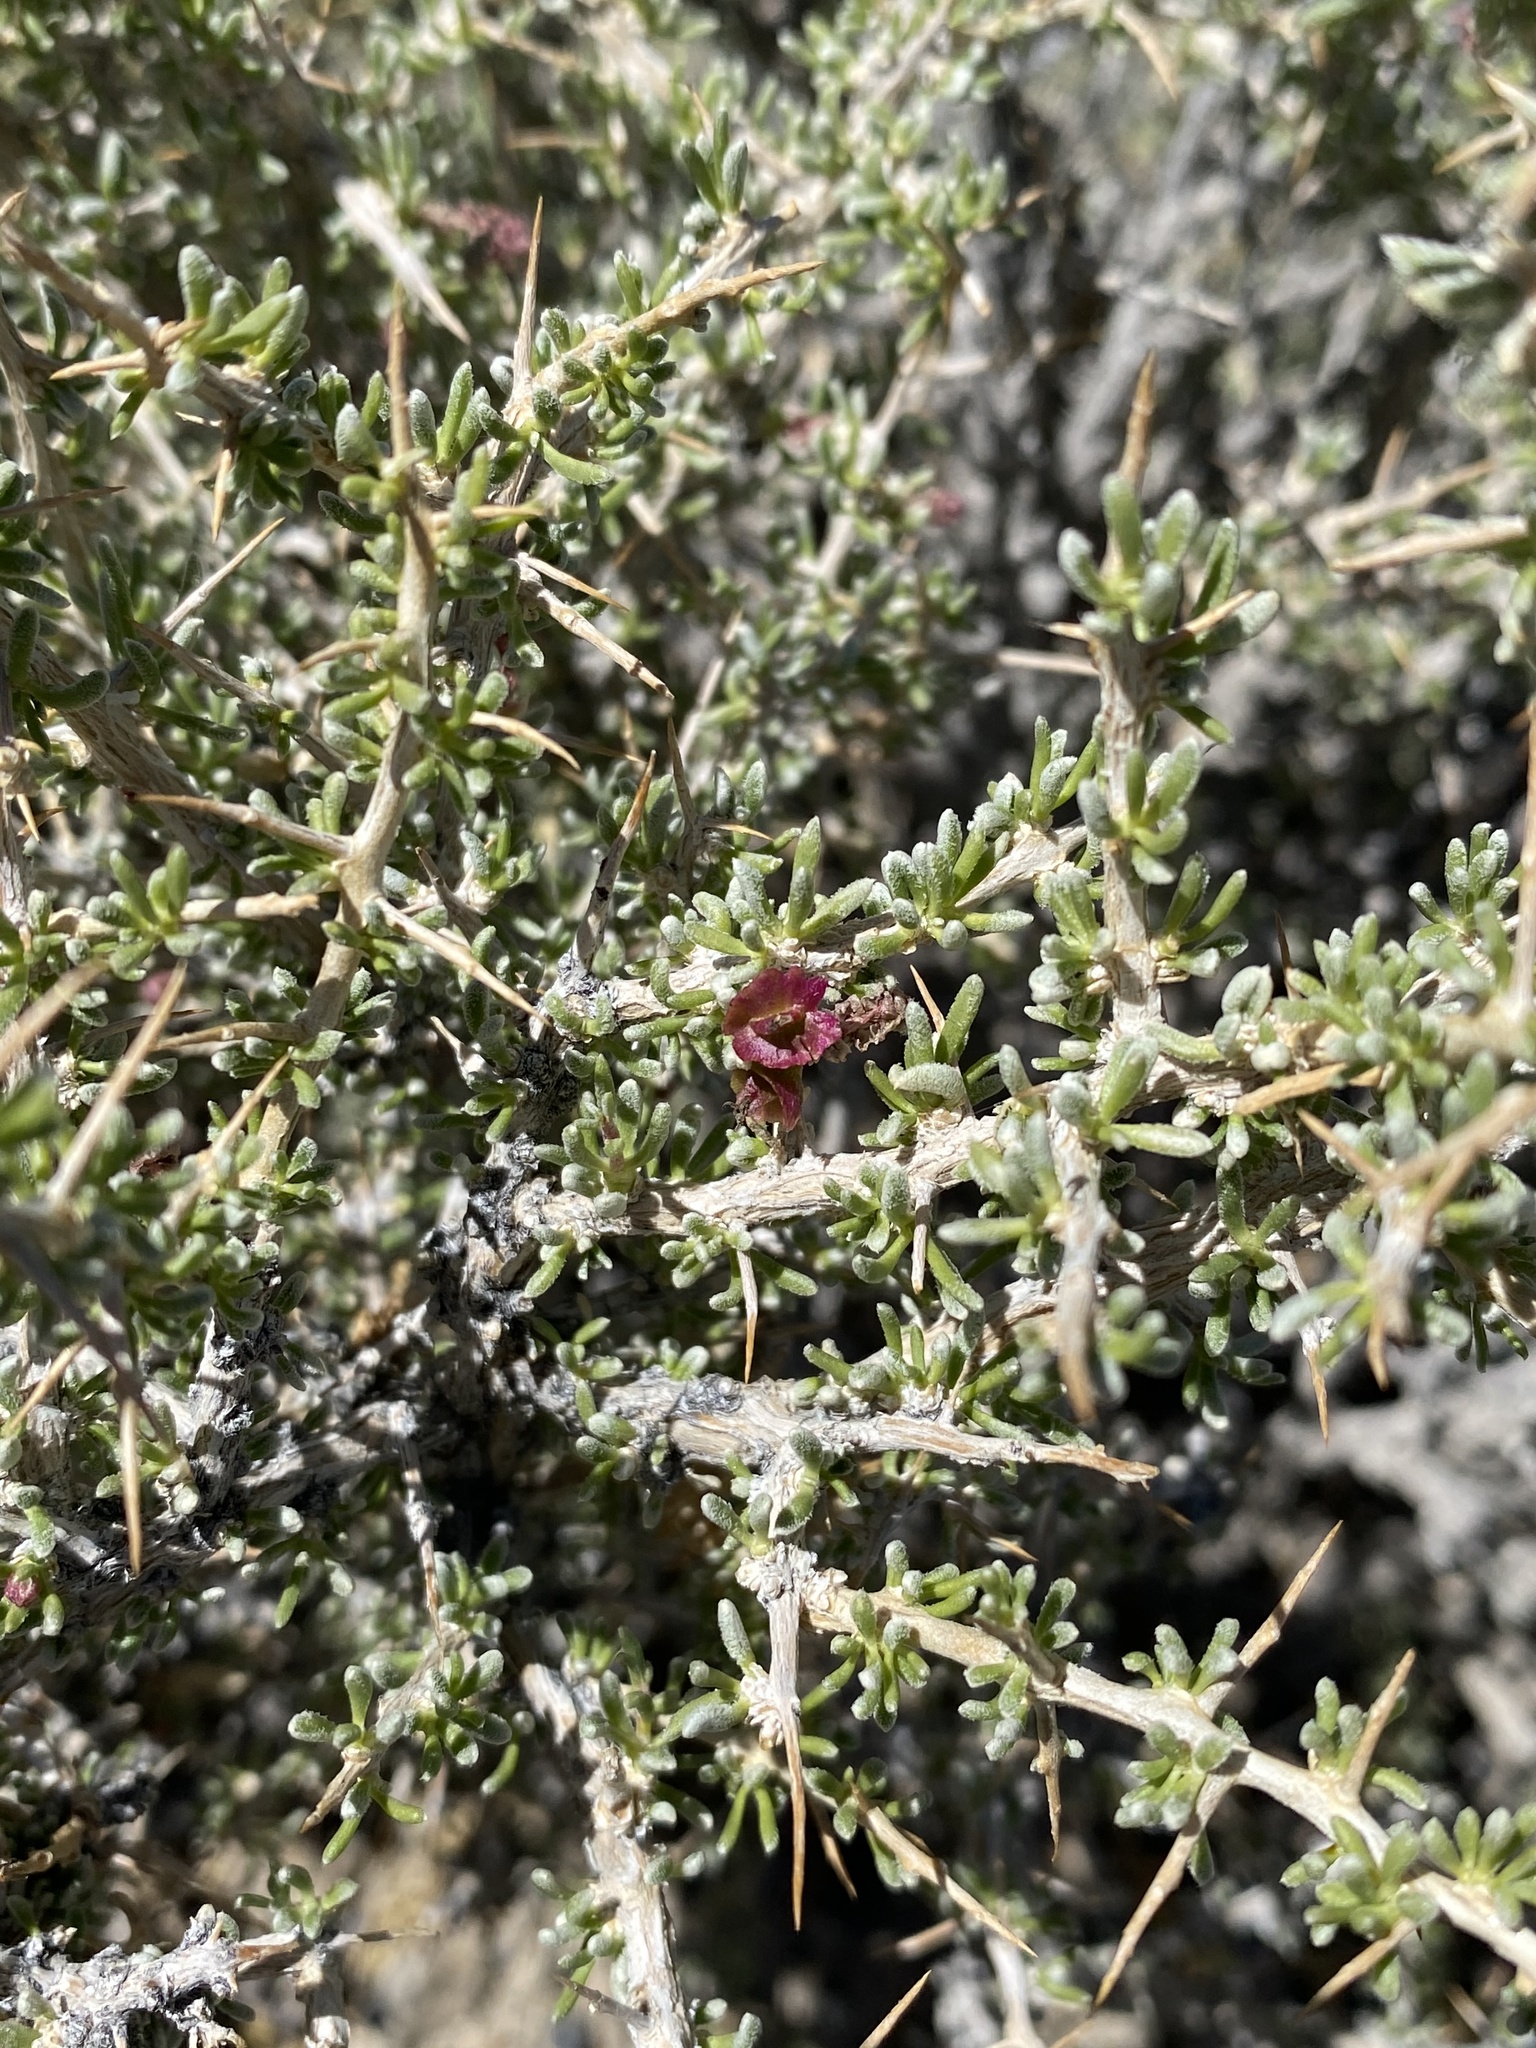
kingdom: Plantae
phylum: Tracheophyta
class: Magnoliopsida
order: Caryophyllales
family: Sarcobataceae
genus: Sarcobatus
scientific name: Sarcobatus baileyi
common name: Bailey greasewood
